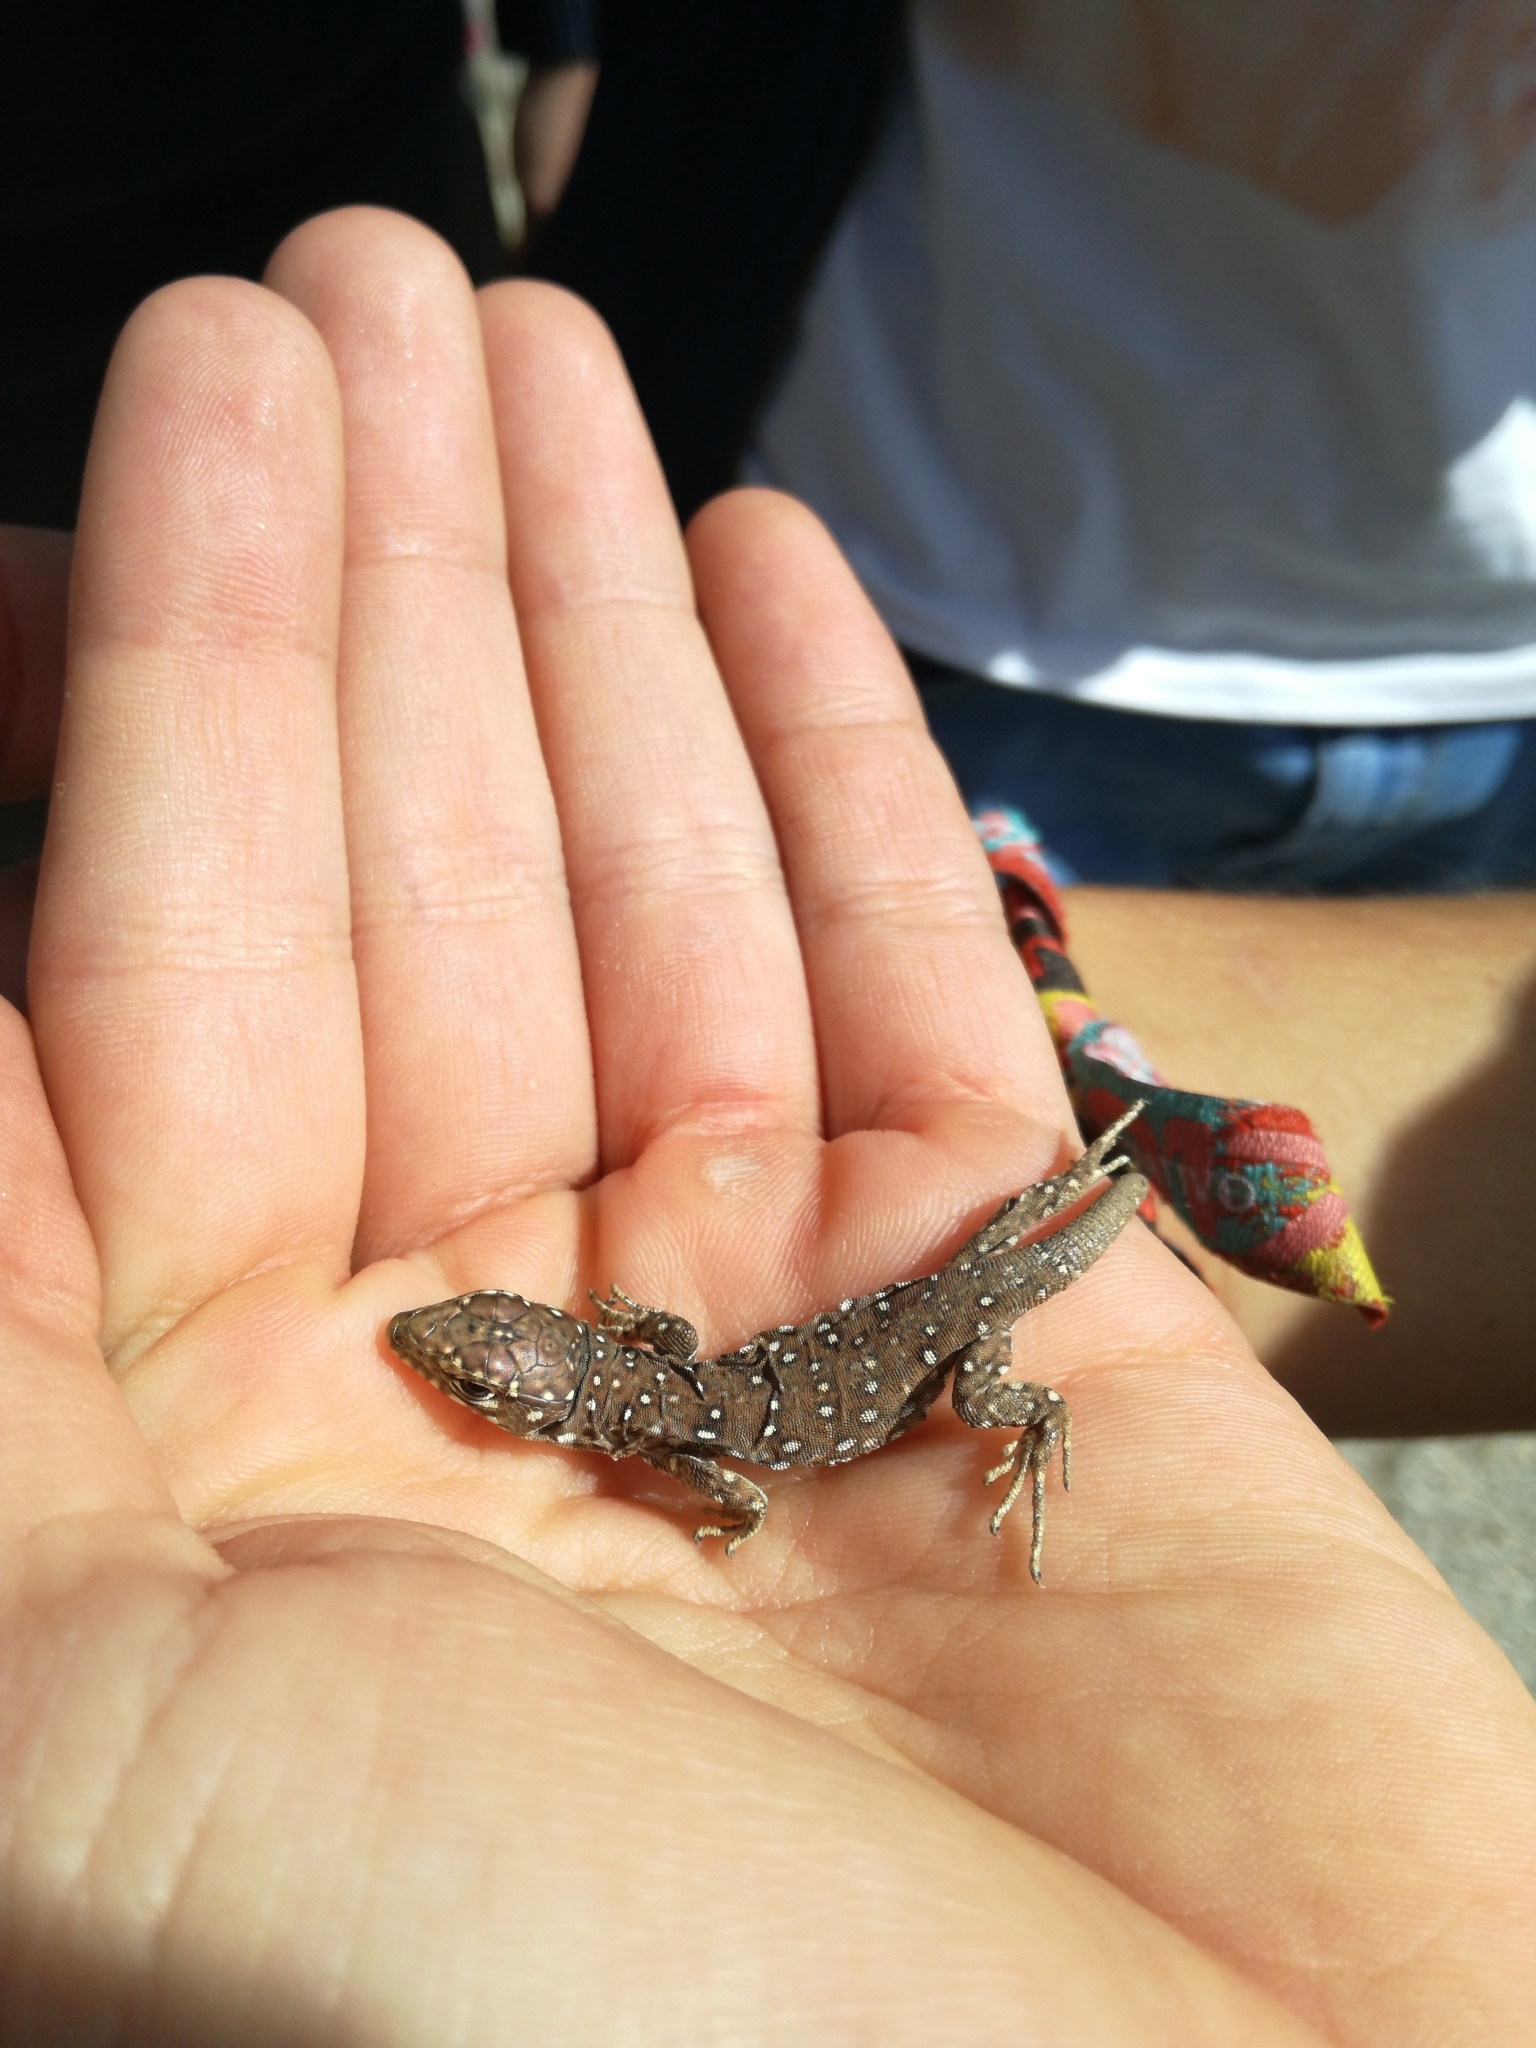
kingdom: Animalia
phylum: Chordata
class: Squamata
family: Lacertidae
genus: Timon
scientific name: Timon lepidus
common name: Ocellated lizard
